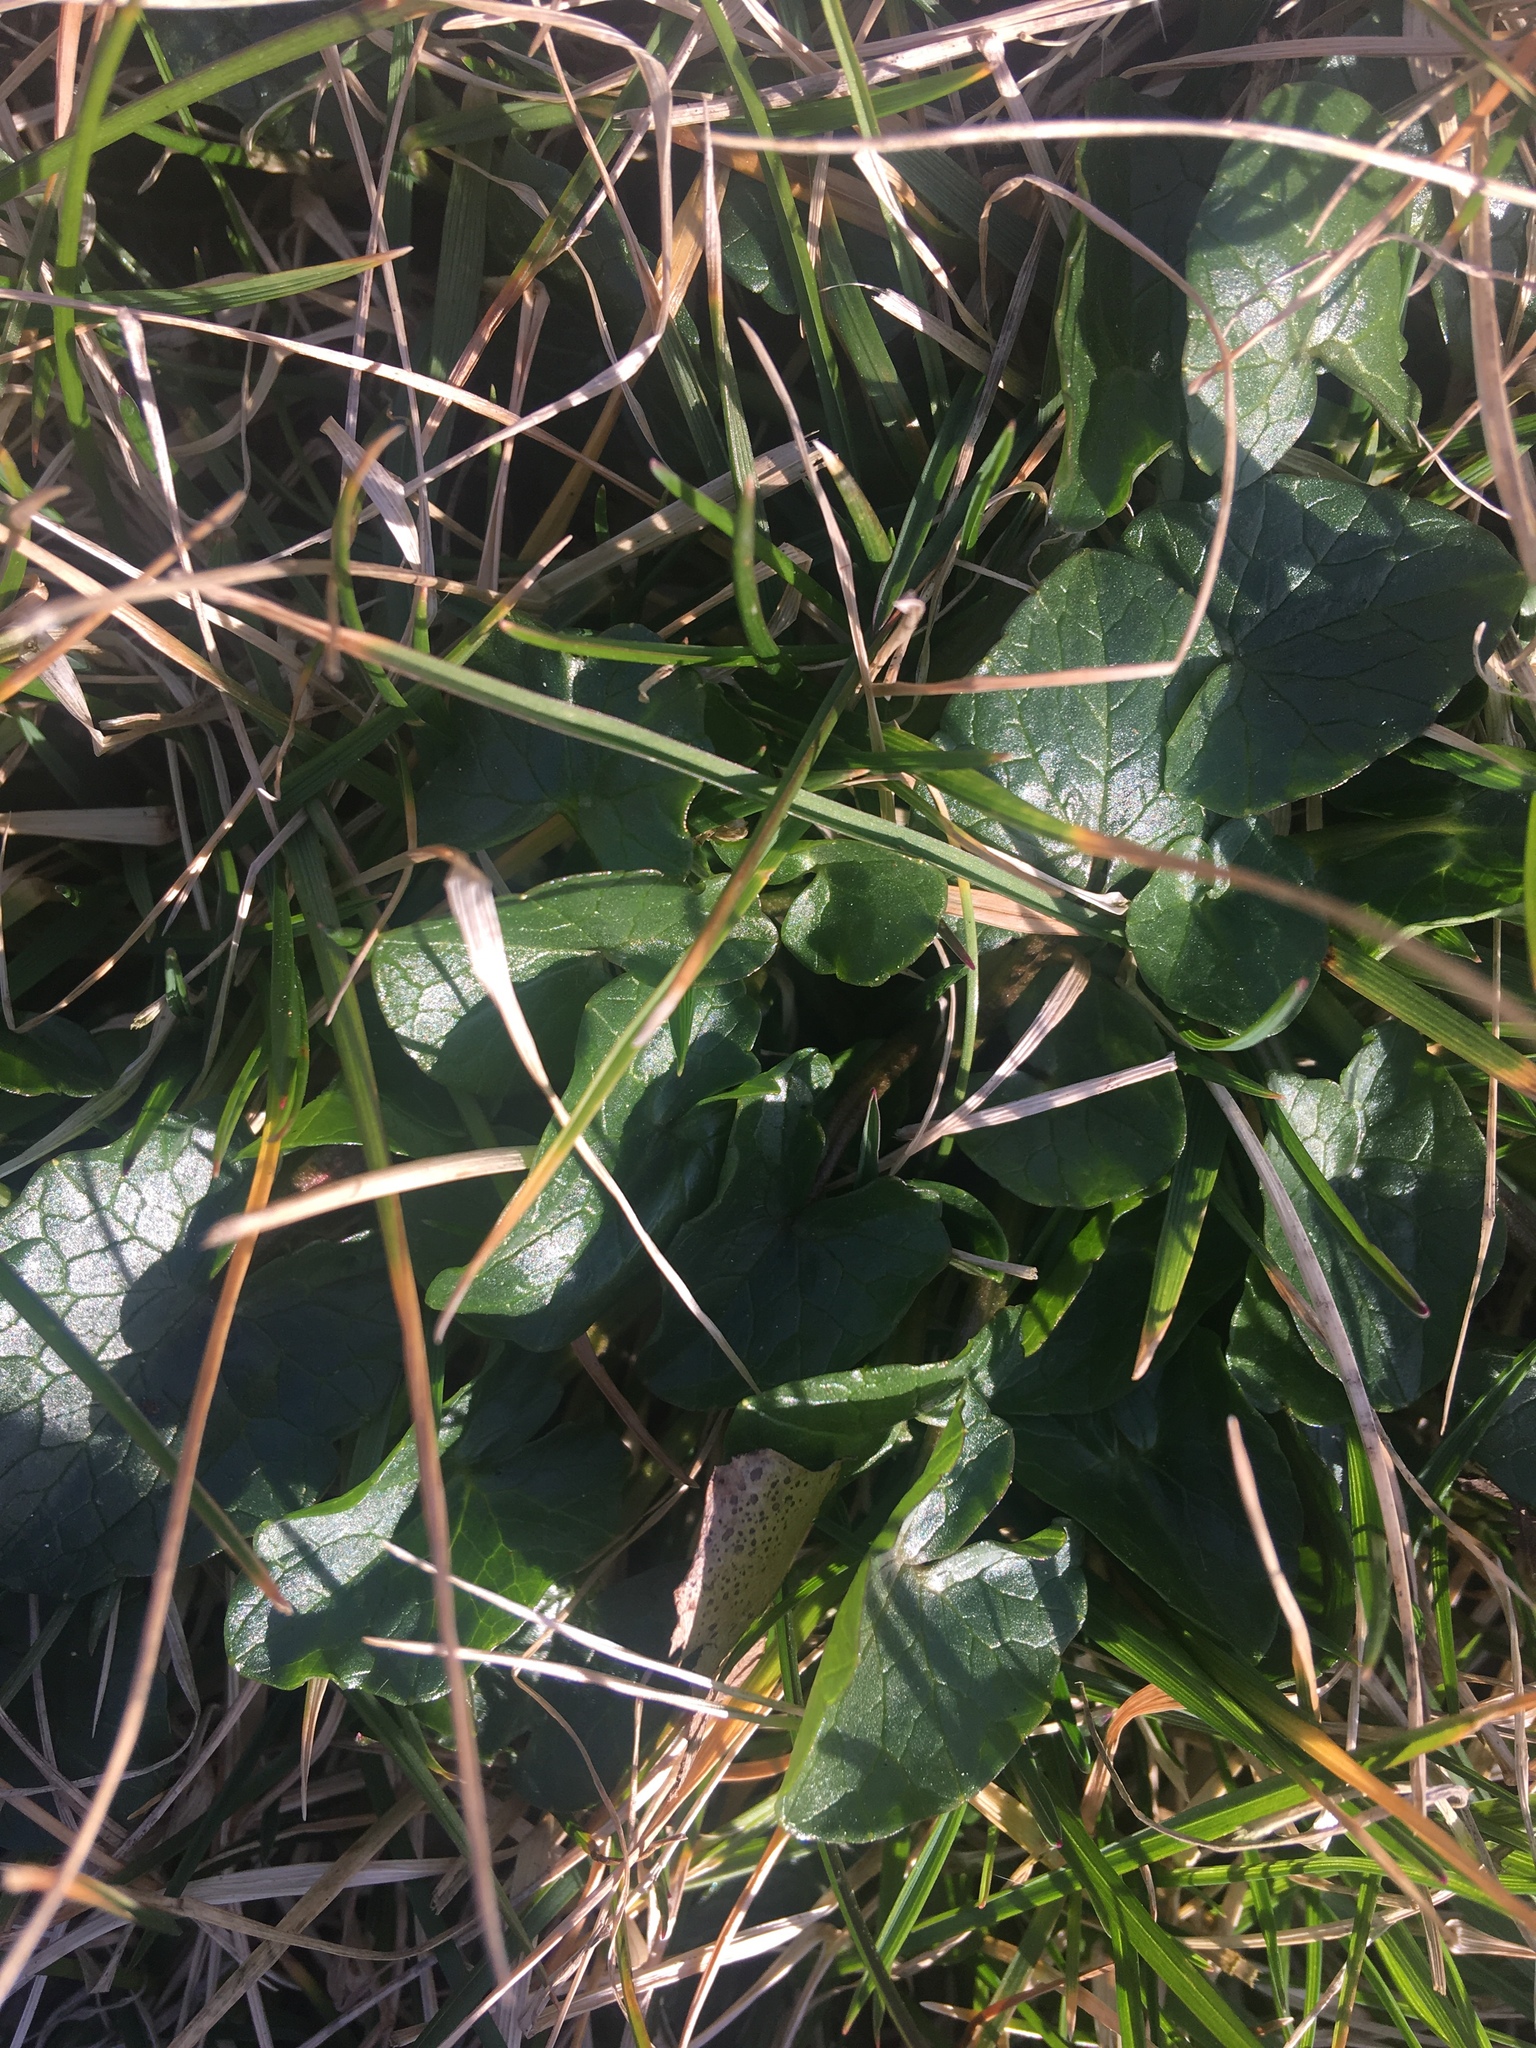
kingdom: Plantae
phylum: Tracheophyta
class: Magnoliopsida
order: Ranunculales
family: Ranunculaceae
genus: Ficaria
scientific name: Ficaria verna
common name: Lesser celandine
